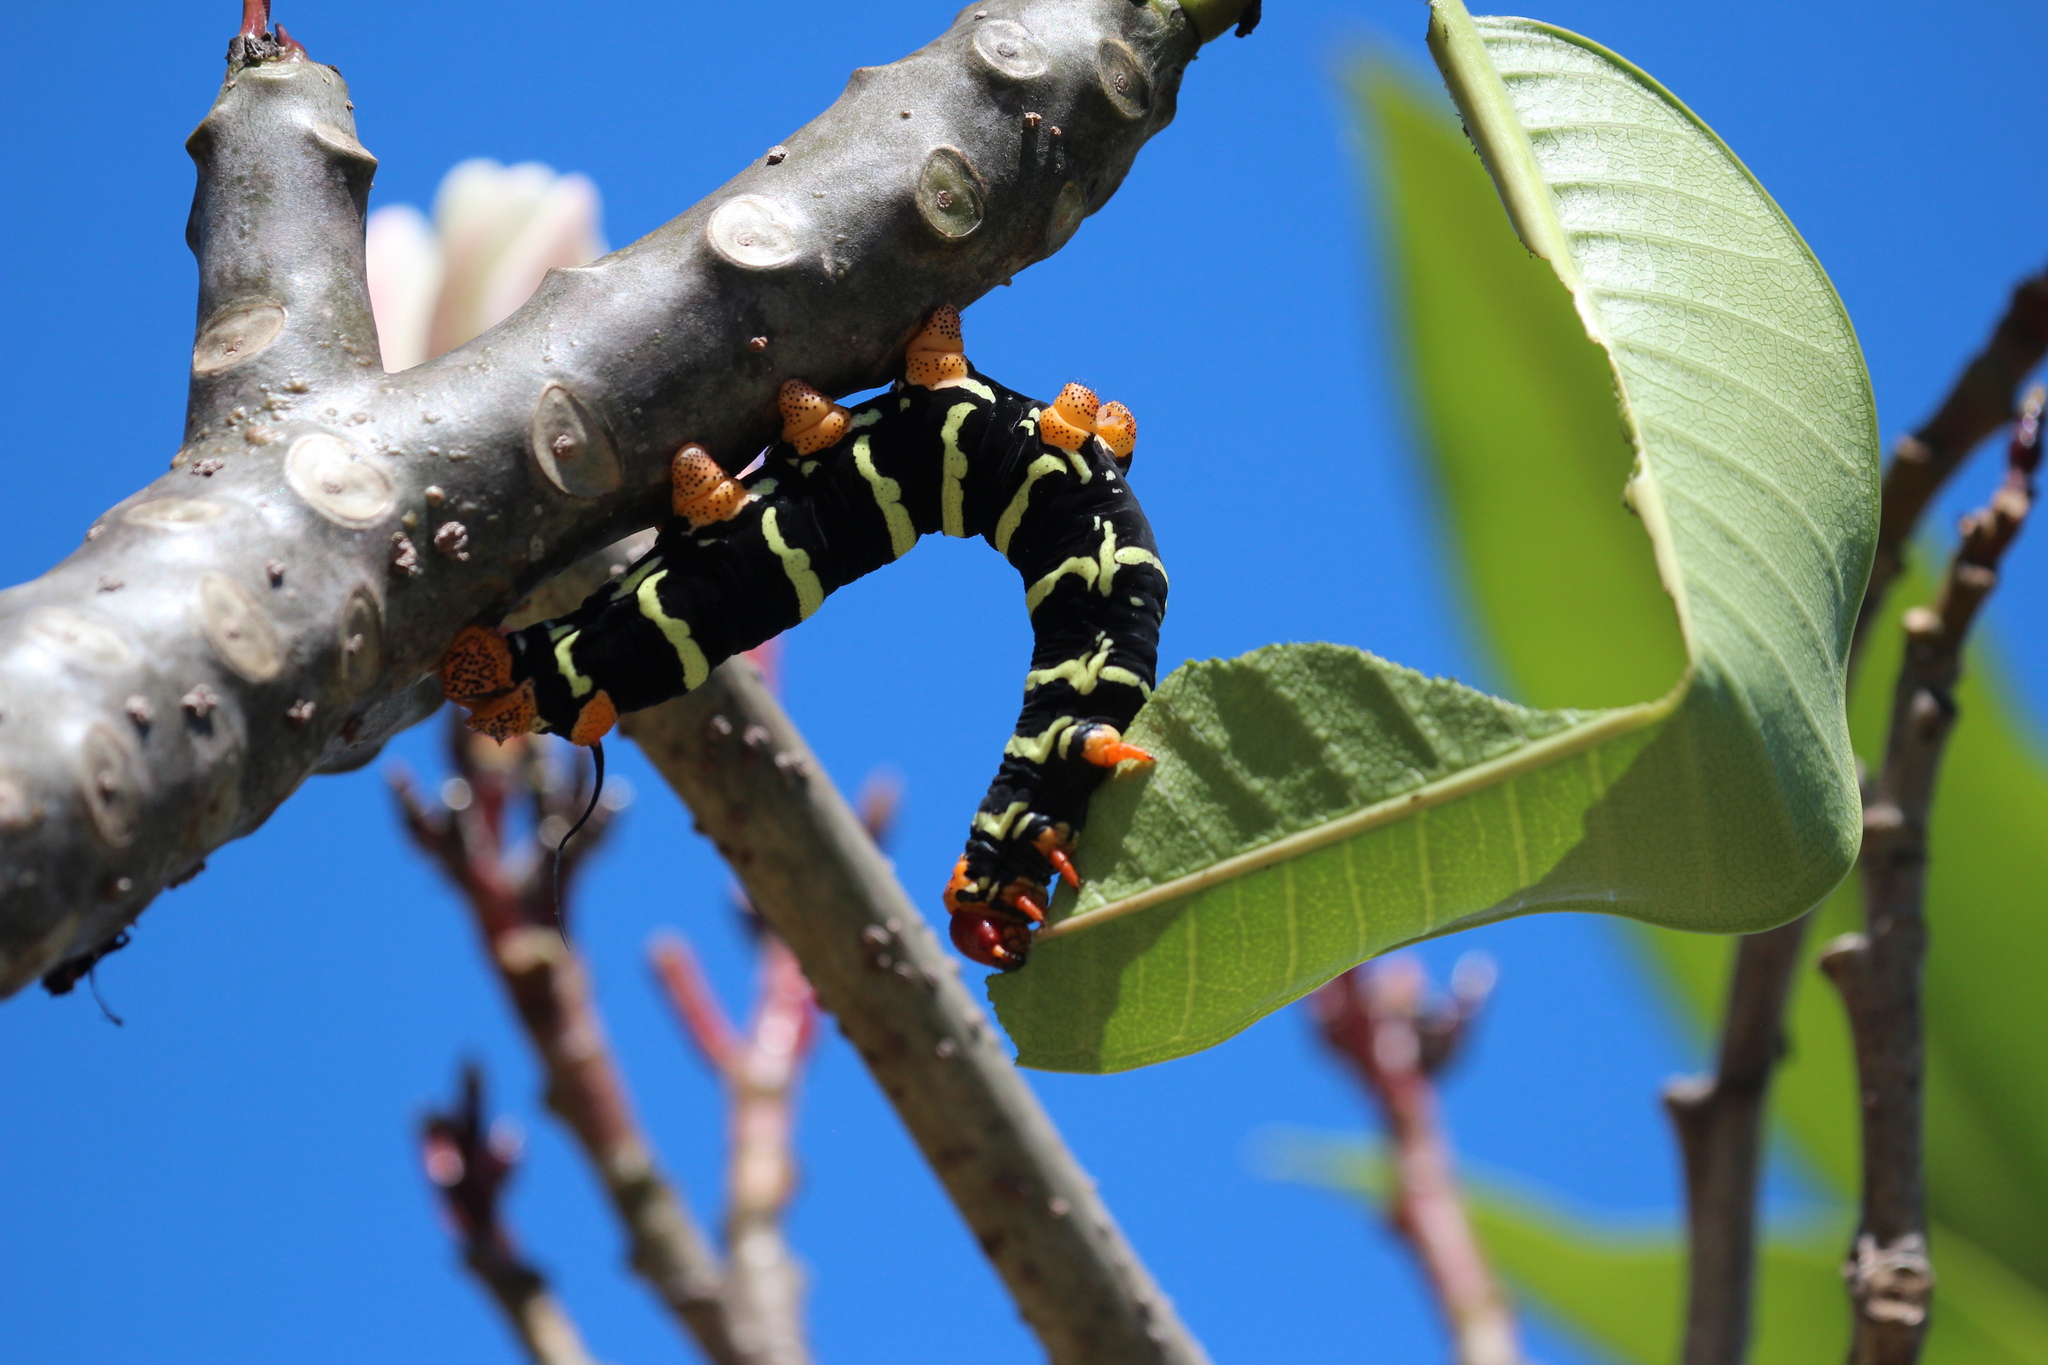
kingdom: Animalia
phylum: Arthropoda
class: Insecta
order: Lepidoptera
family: Sphingidae
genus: Pseudosphinx
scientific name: Pseudosphinx tetrio
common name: Tetrio sphinx
